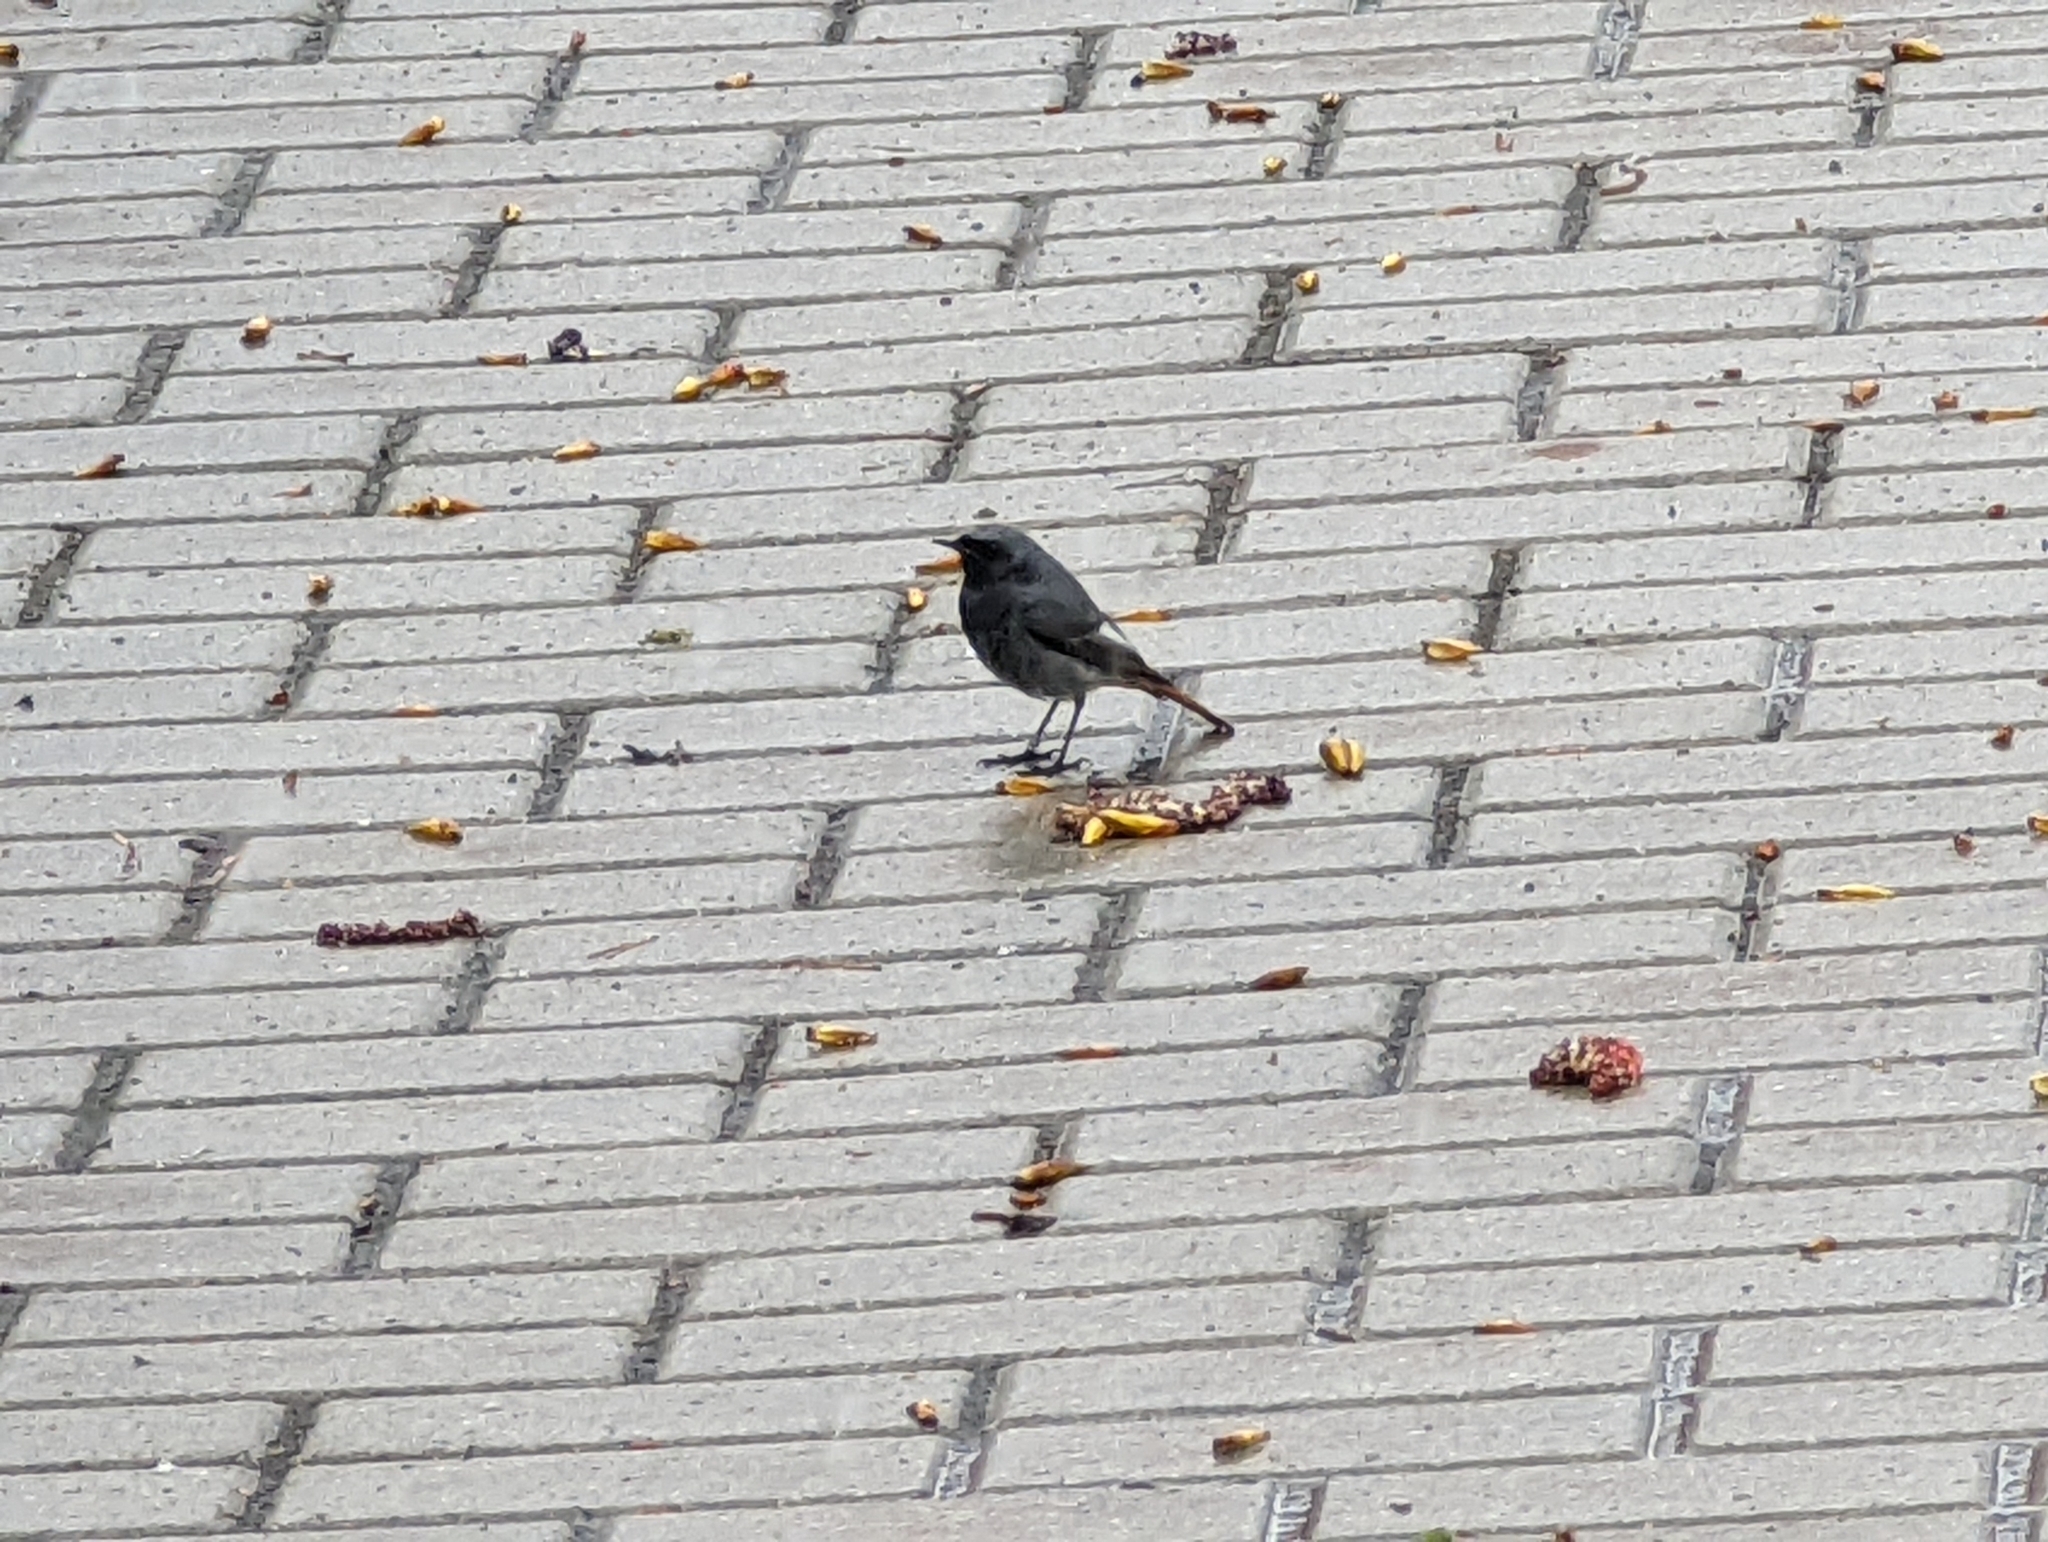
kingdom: Animalia
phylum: Chordata
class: Aves
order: Passeriformes
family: Muscicapidae
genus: Phoenicurus
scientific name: Phoenicurus ochruros
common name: Black redstart
